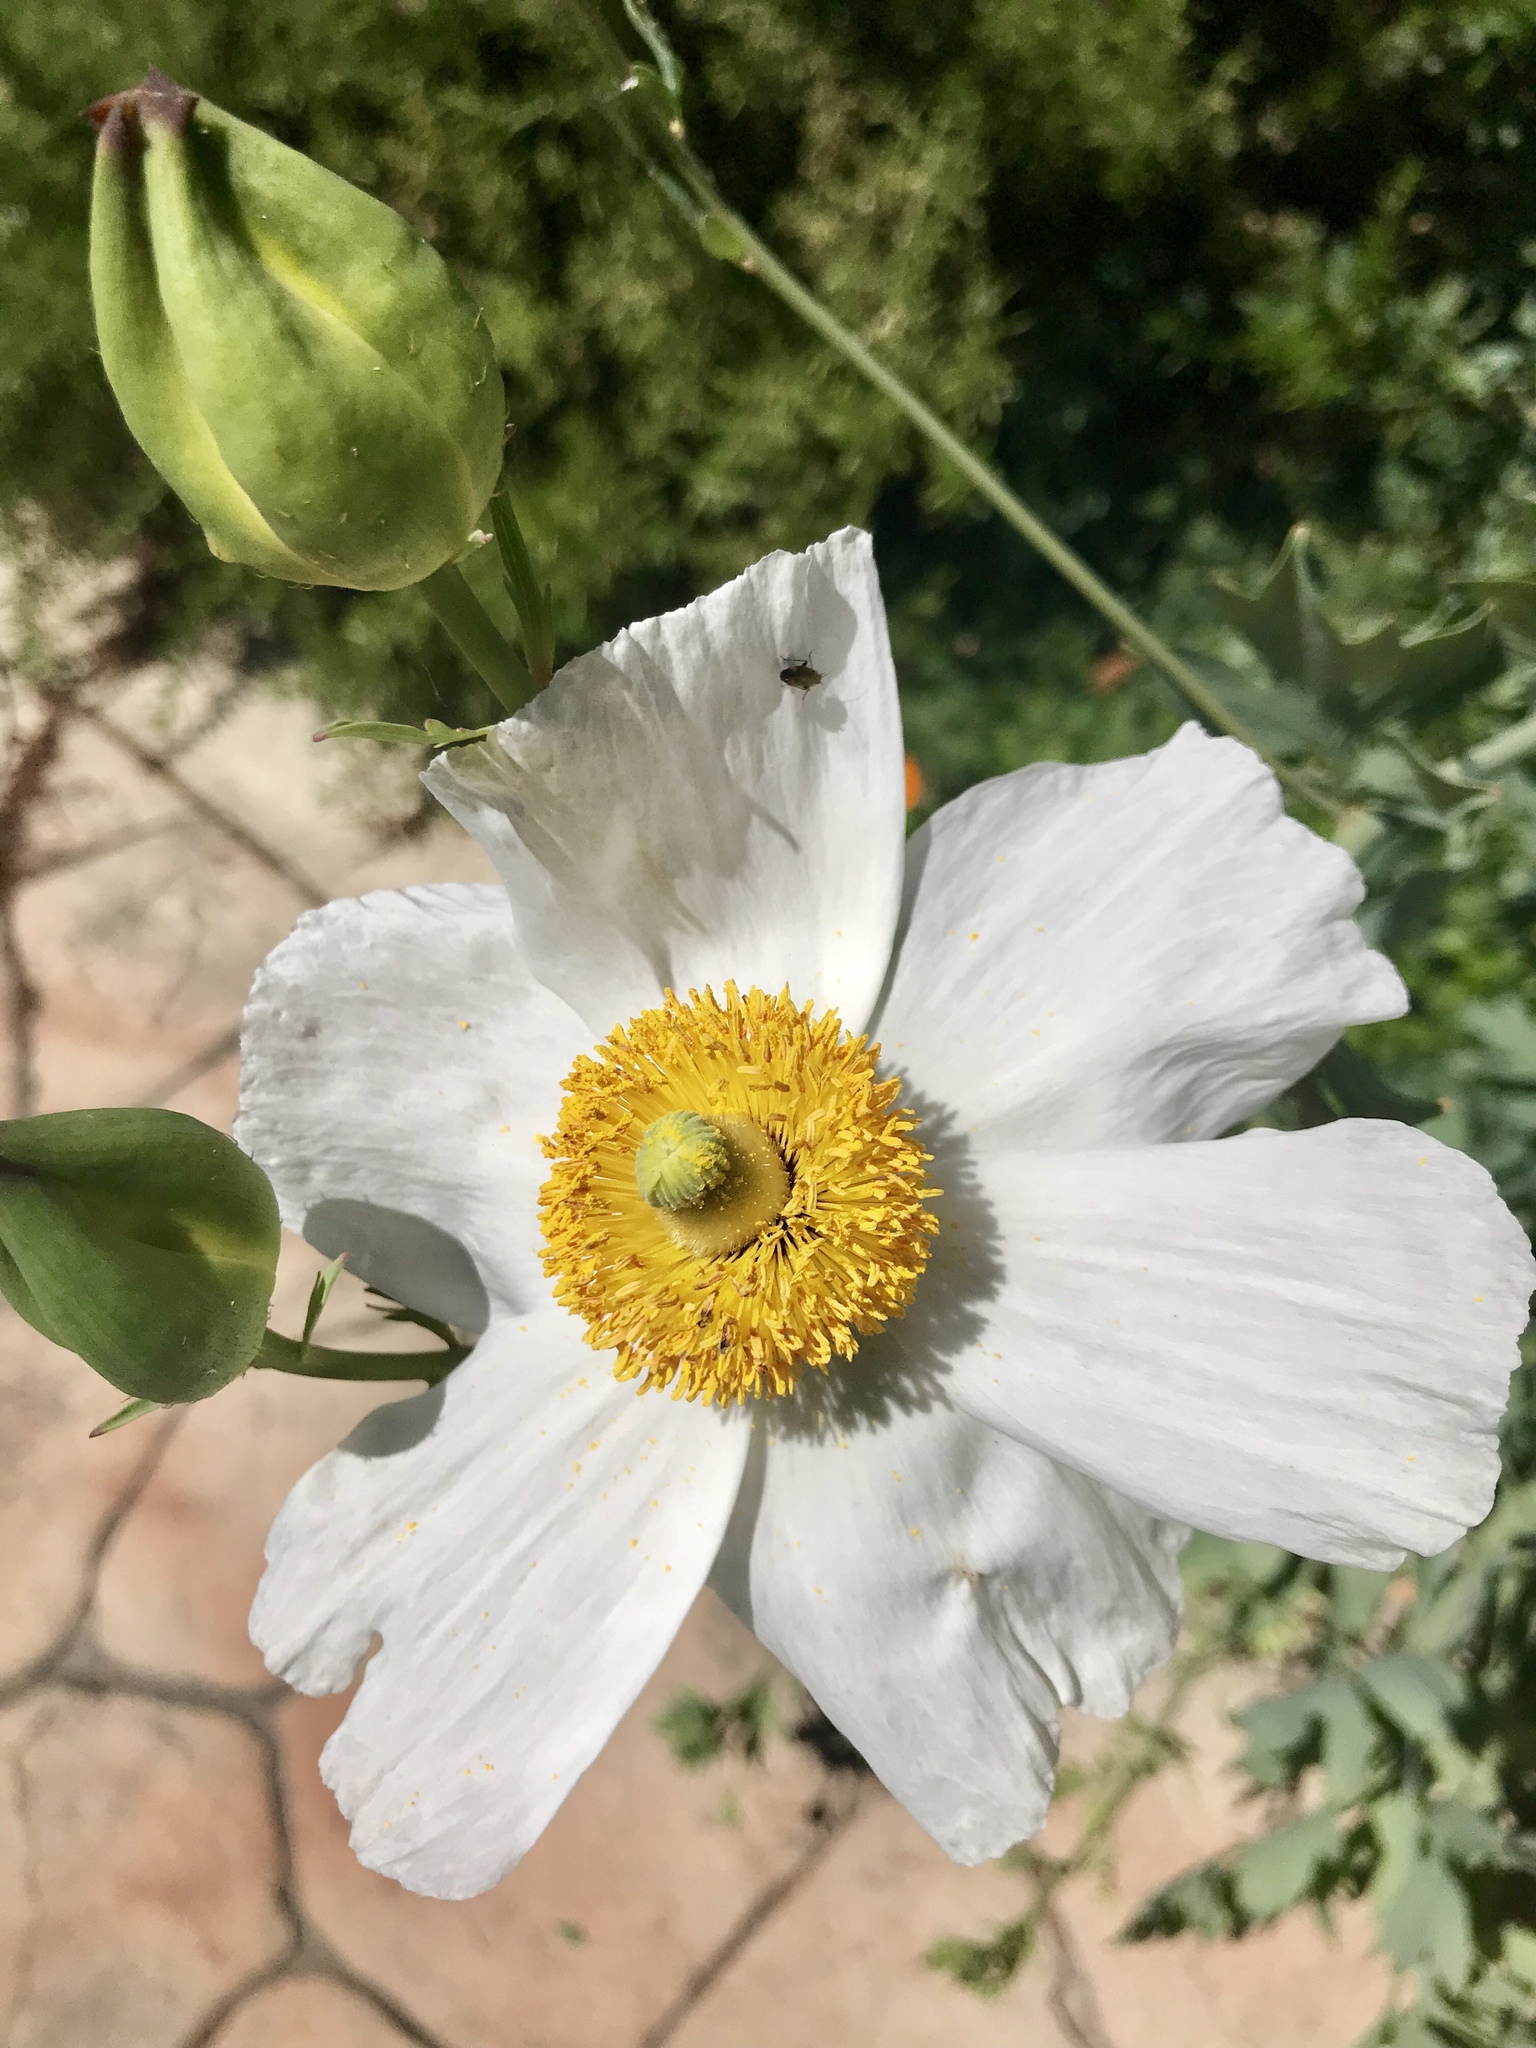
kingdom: Plantae
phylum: Tracheophyta
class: Magnoliopsida
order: Ranunculales
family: Papaveraceae
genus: Romneya
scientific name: Romneya coulteri
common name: California tree-poppy
